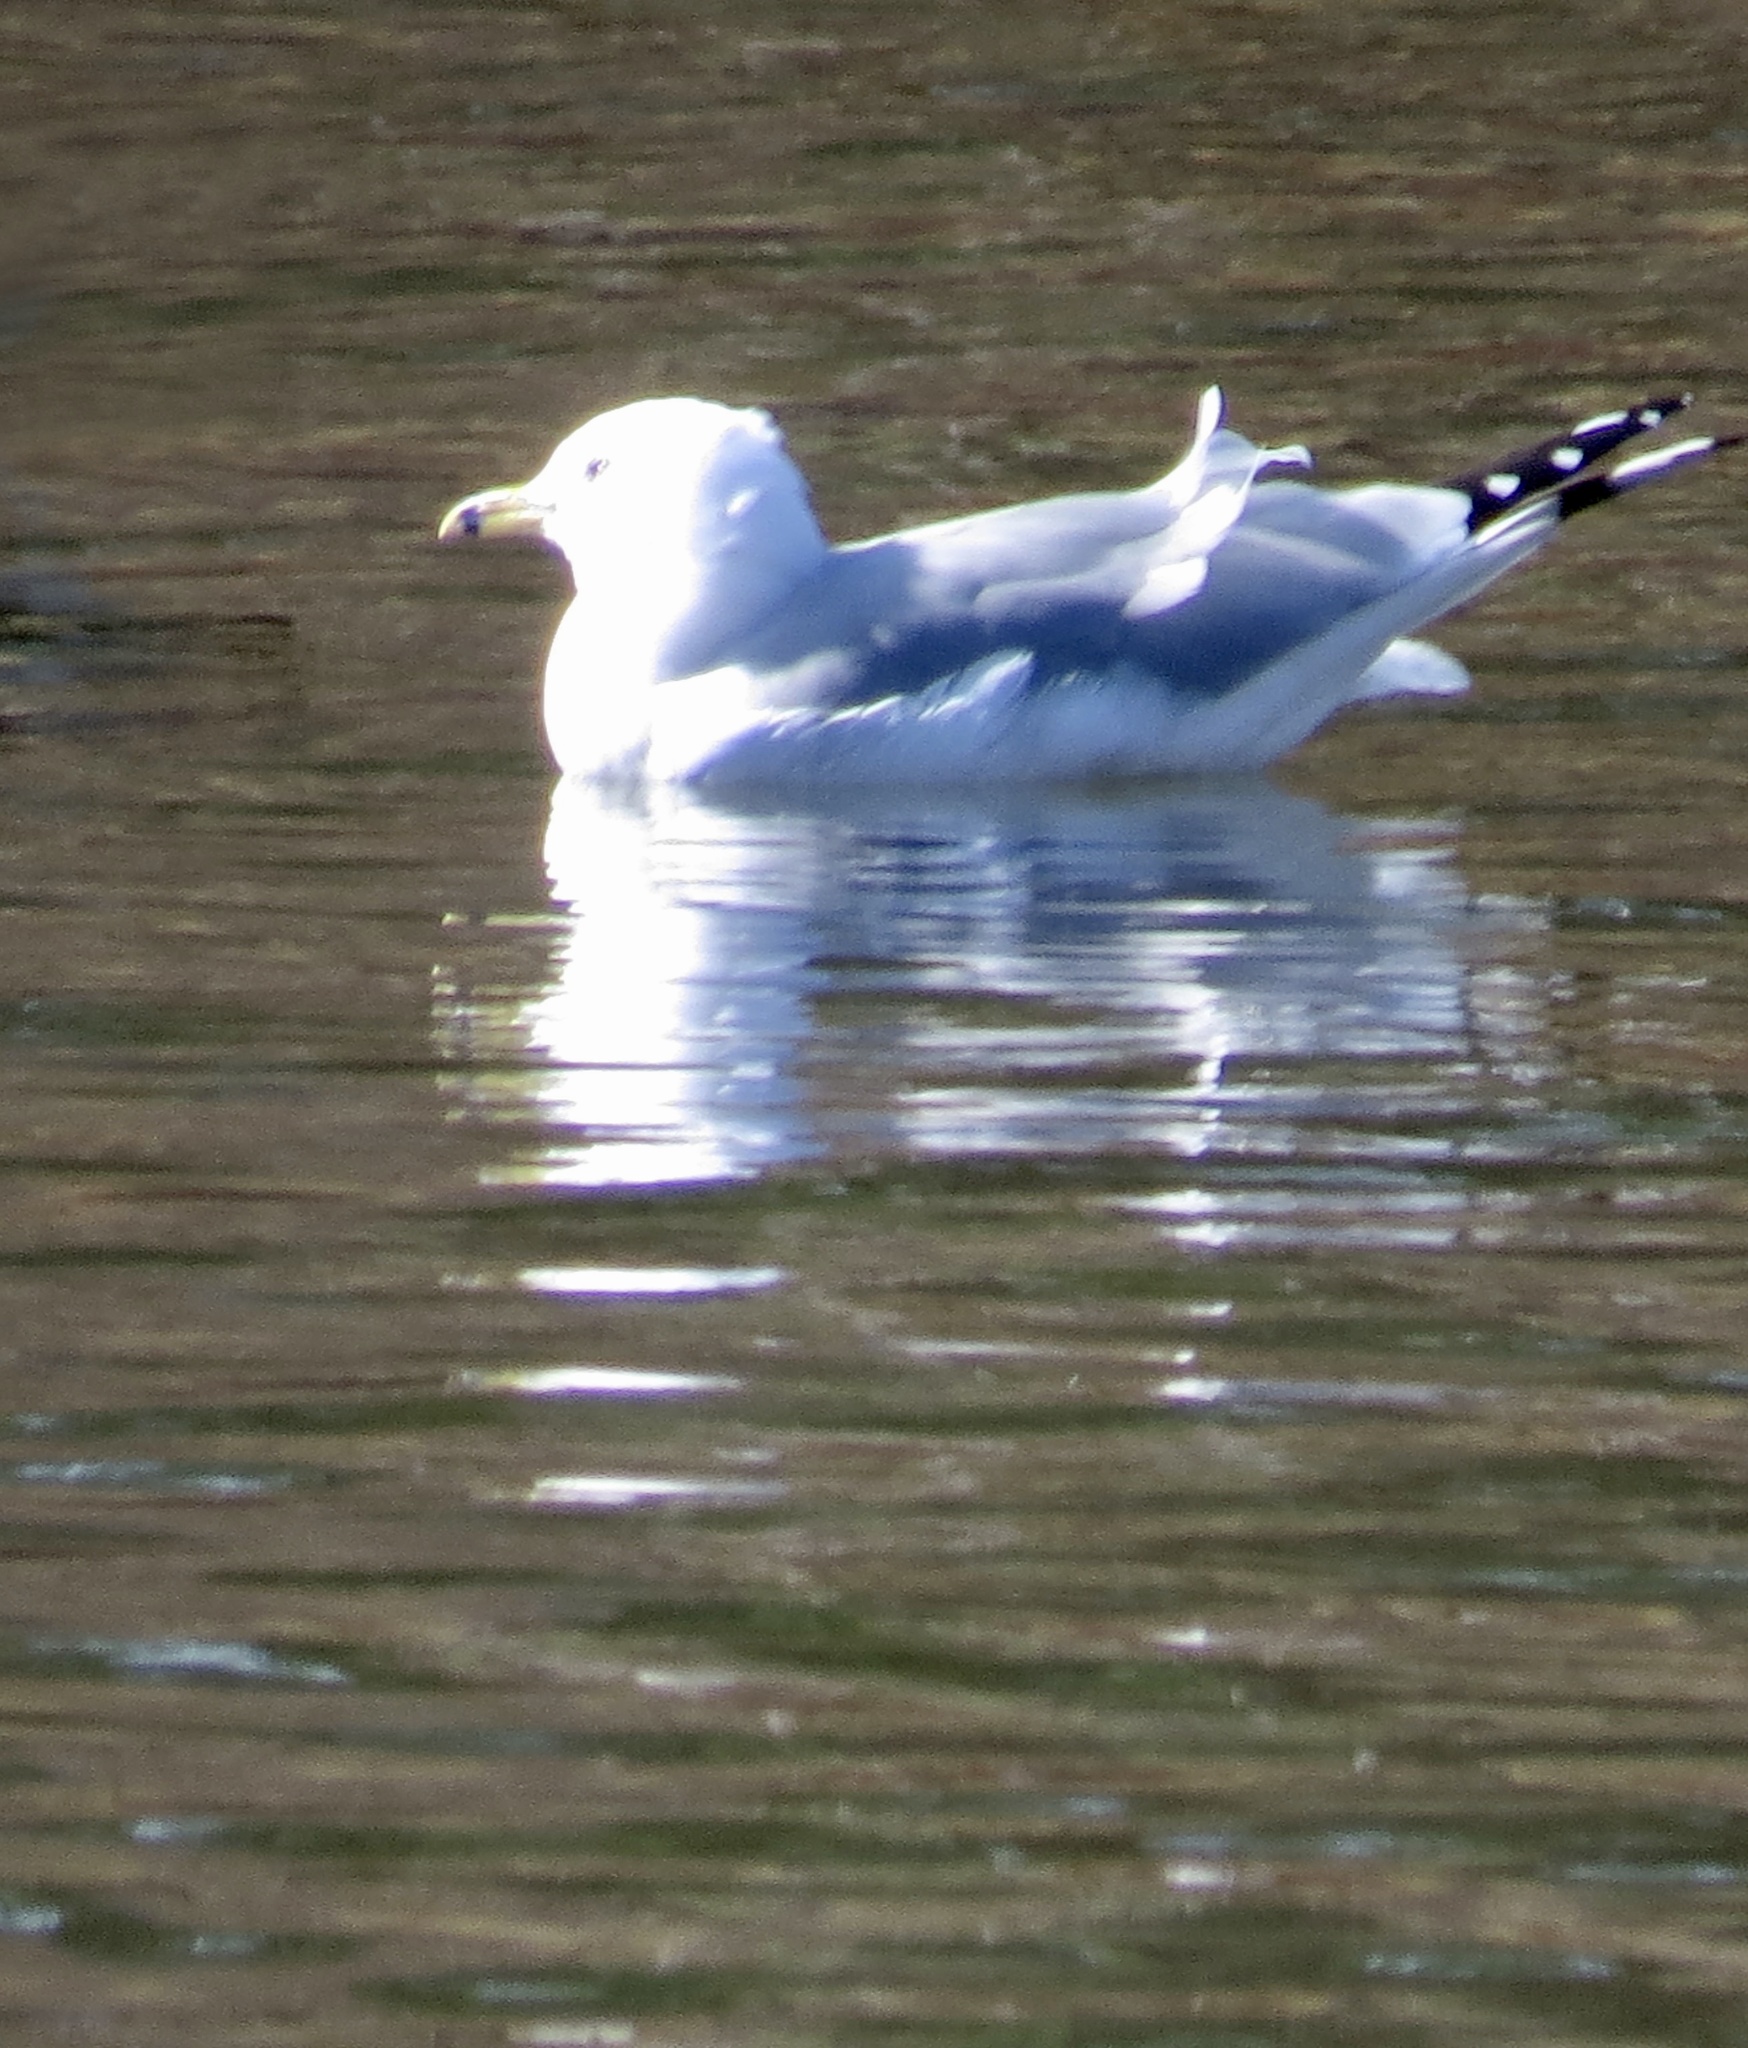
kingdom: Animalia
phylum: Chordata
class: Aves
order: Charadriiformes
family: Laridae
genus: Larus
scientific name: Larus delawarensis
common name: Ring-billed gull
